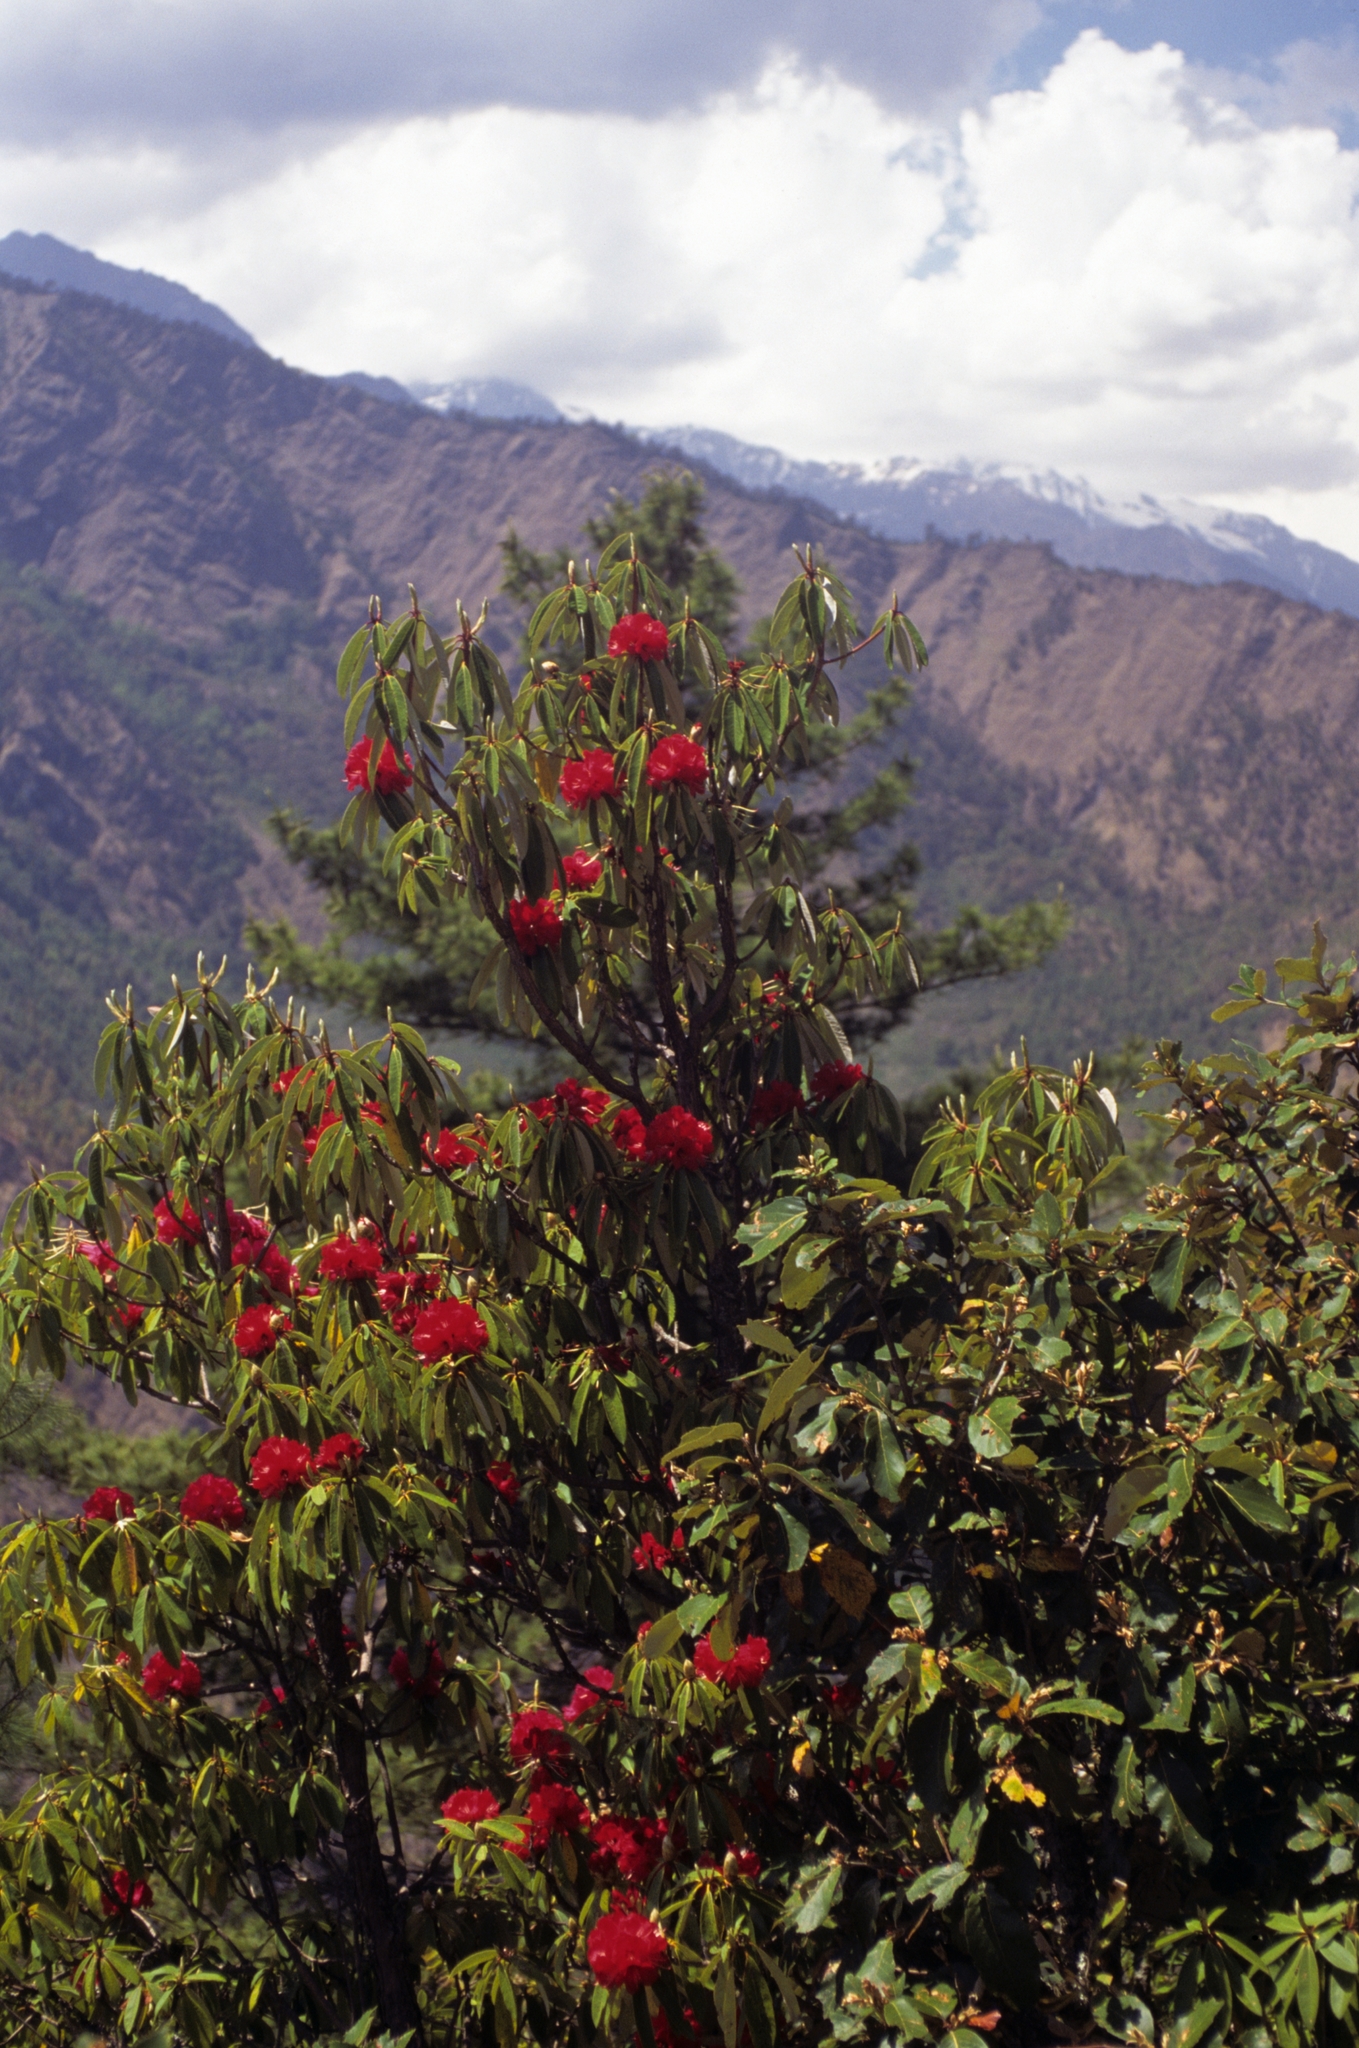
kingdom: Plantae
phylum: Tracheophyta
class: Magnoliopsida
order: Ericales
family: Ericaceae
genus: Rhododendron
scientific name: Rhododendron arboreum
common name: Tree rhododendron
